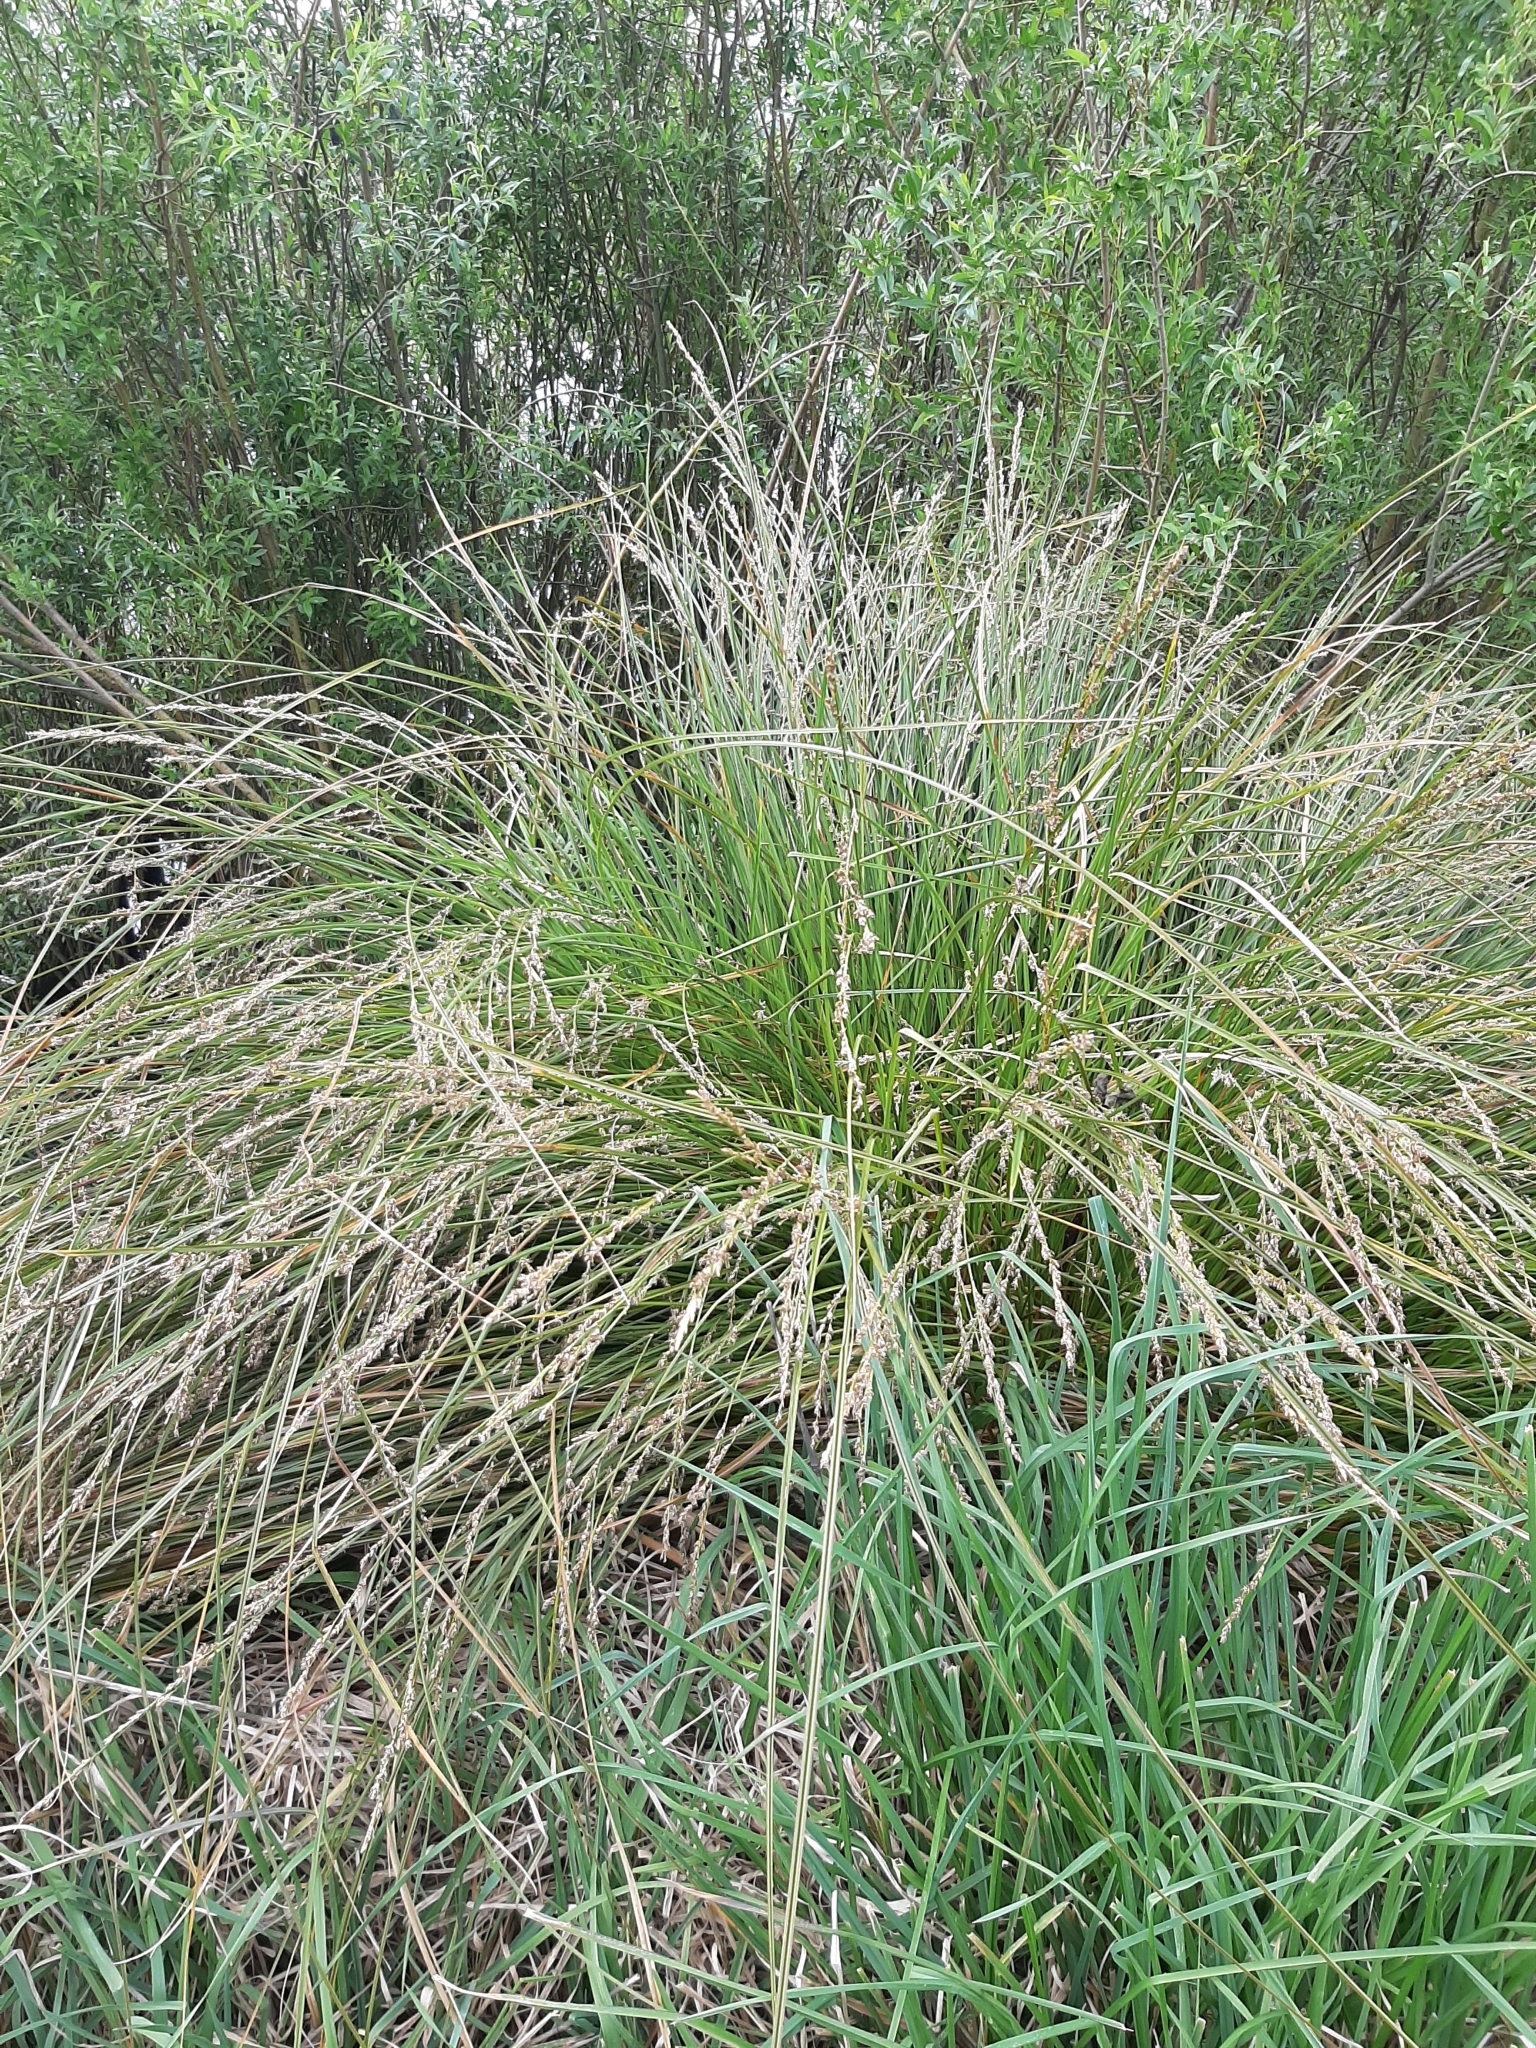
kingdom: Plantae
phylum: Tracheophyta
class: Liliopsida
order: Poales
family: Cyperaceae
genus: Carex
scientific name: Carex secta
